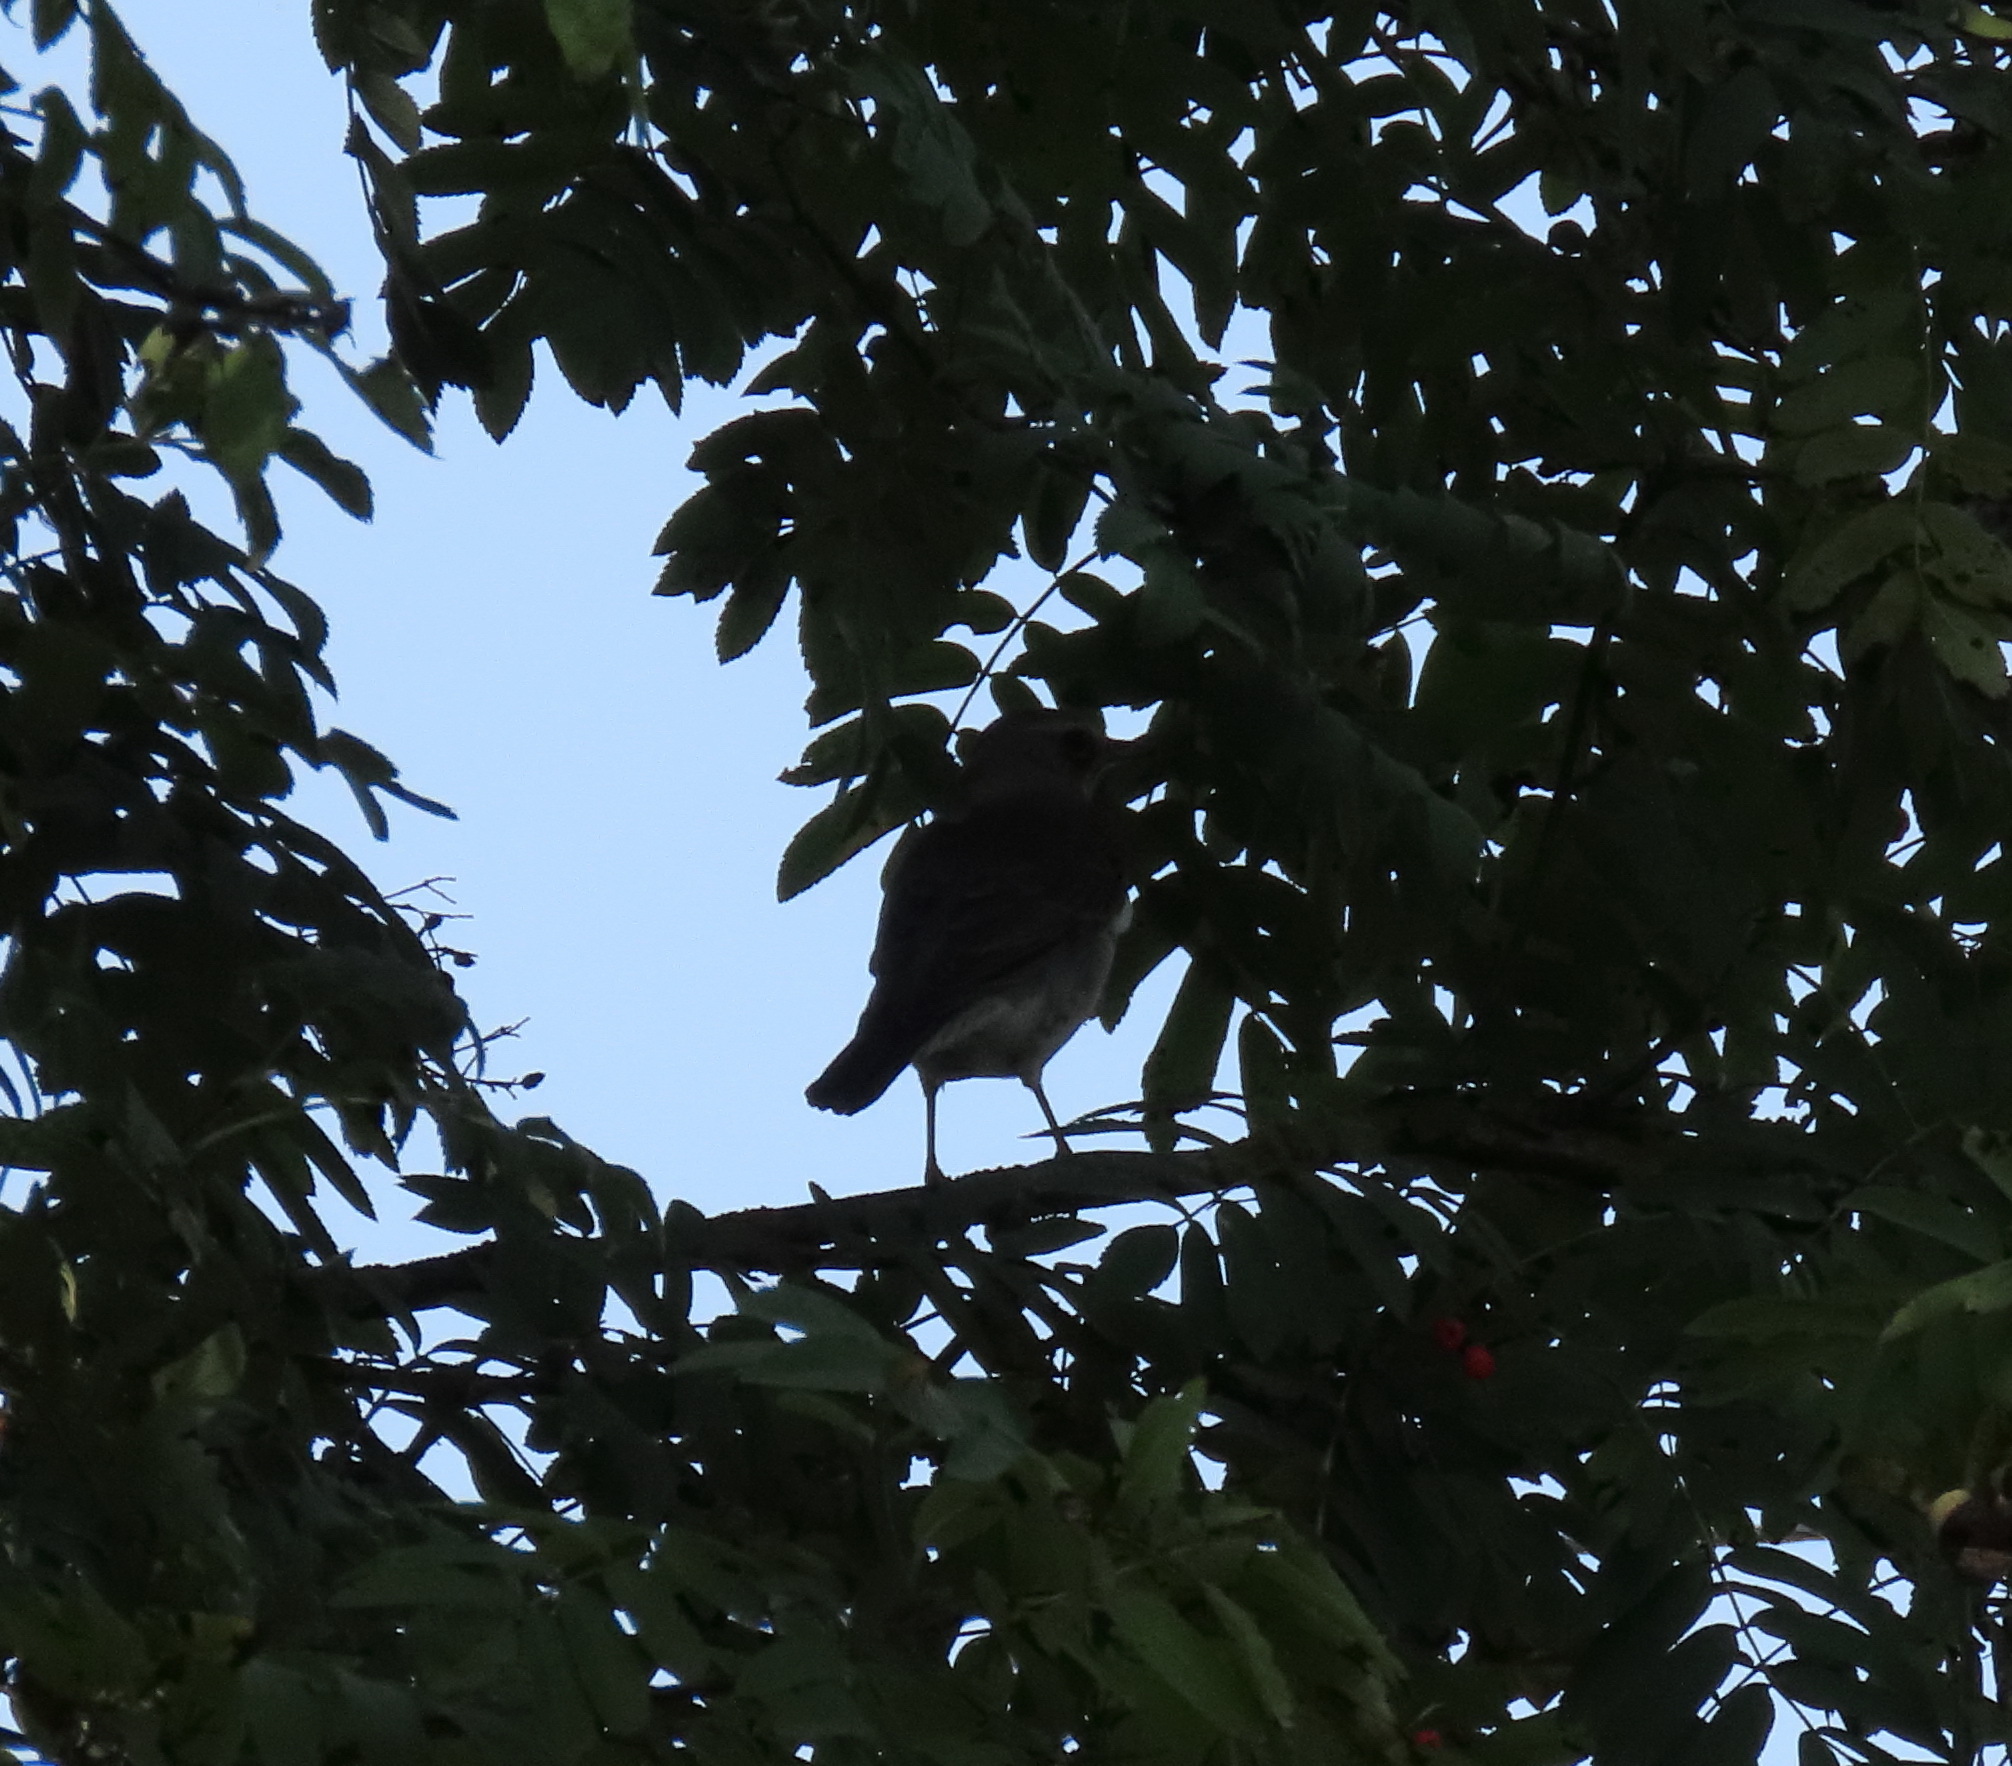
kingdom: Animalia
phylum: Chordata
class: Aves
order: Passeriformes
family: Turdidae
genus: Turdus
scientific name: Turdus pilaris
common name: Fieldfare
